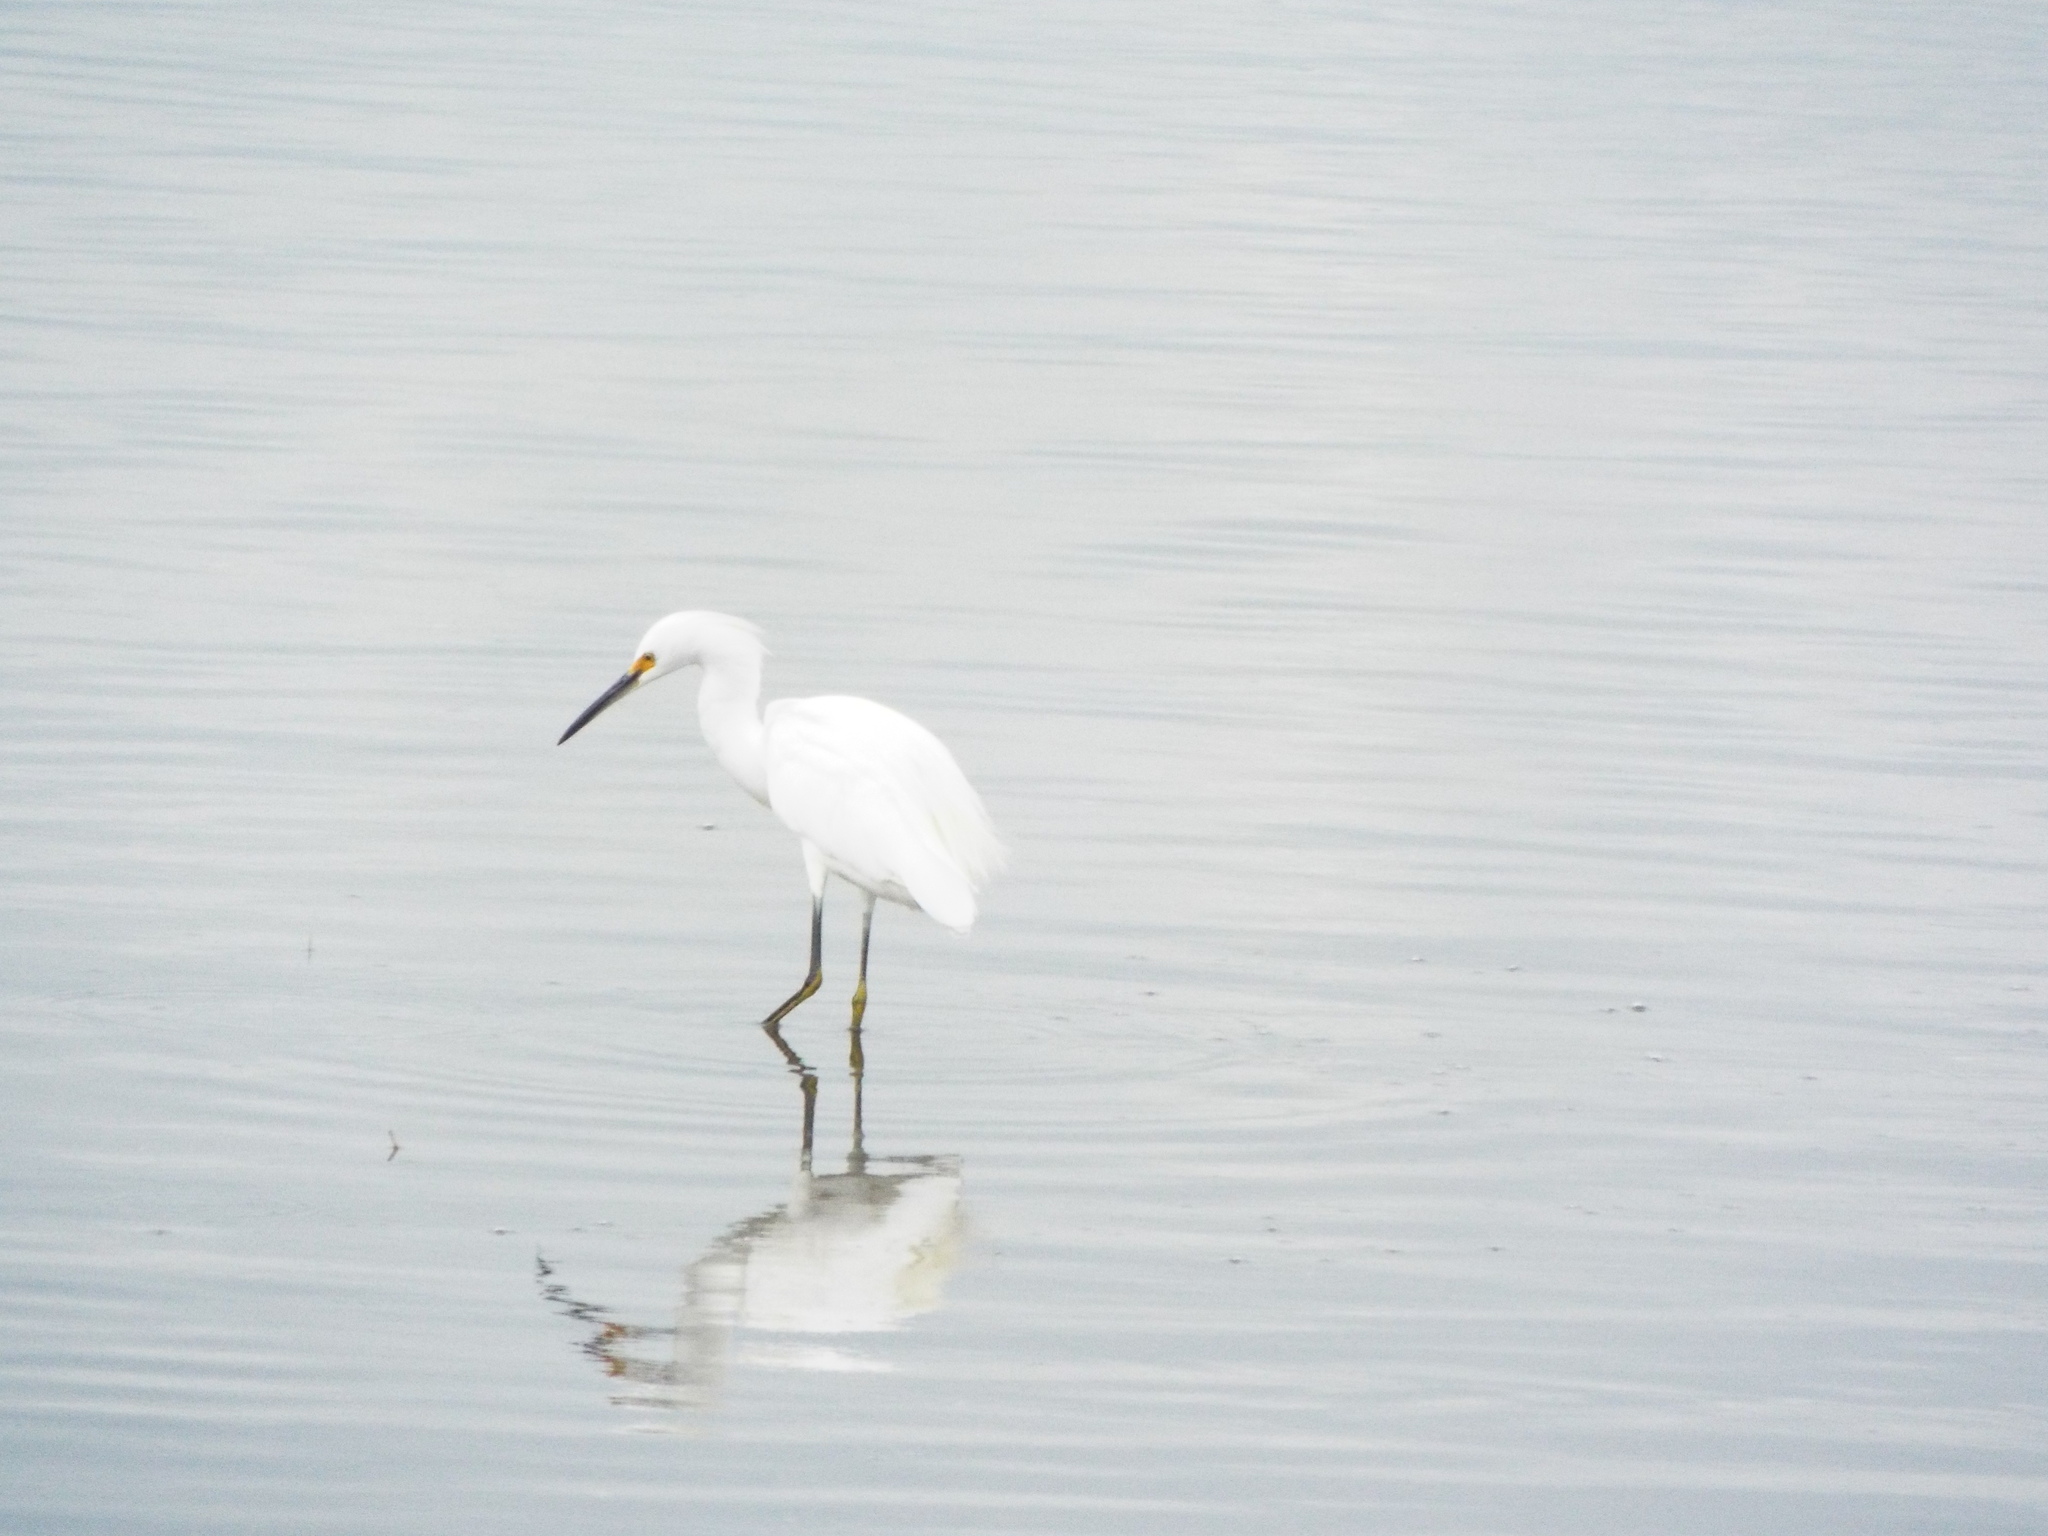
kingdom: Animalia
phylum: Chordata
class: Aves
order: Pelecaniformes
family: Ardeidae
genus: Egretta
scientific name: Egretta thula
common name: Snowy egret
